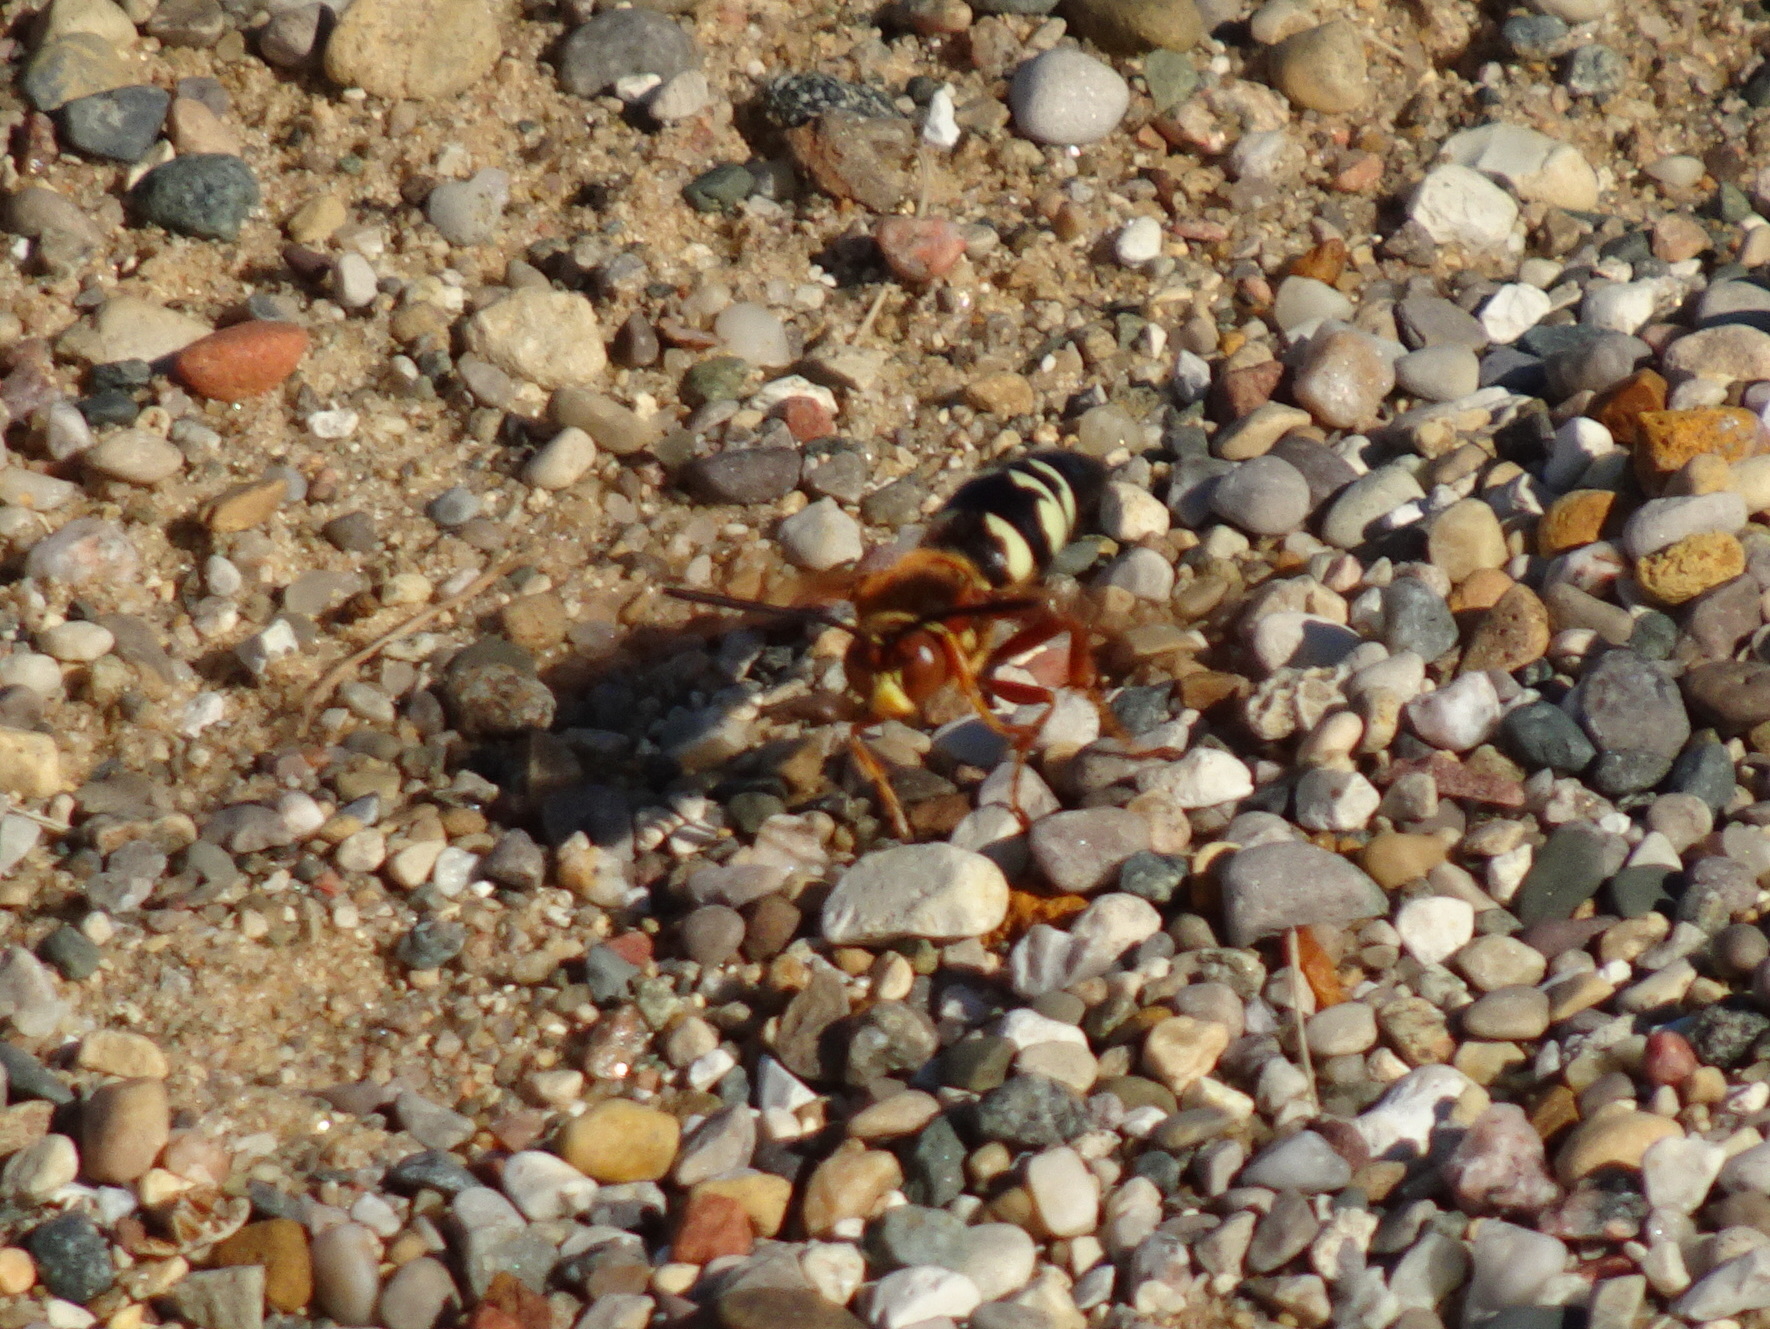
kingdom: Animalia
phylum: Arthropoda
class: Insecta
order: Hymenoptera
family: Crabronidae
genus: Sphecius
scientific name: Sphecius speciosus
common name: Cicada killer
